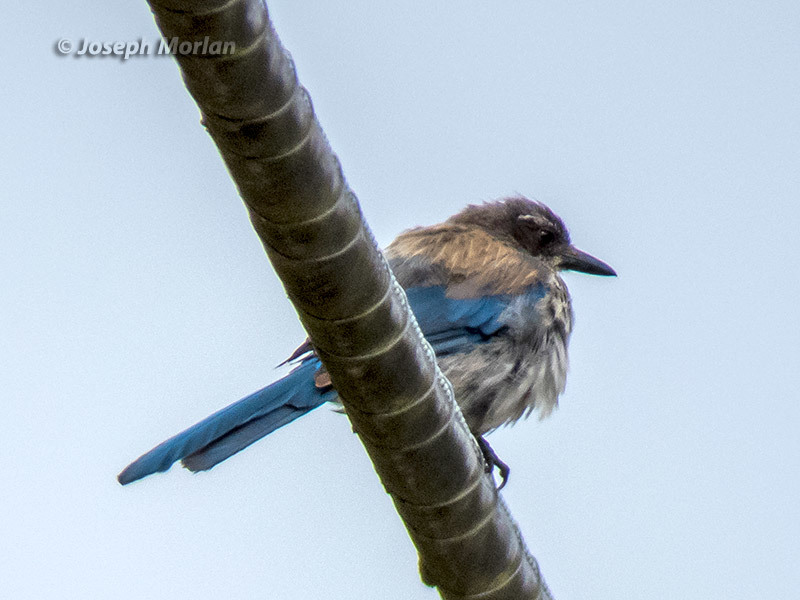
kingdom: Animalia
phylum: Chordata
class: Aves
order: Passeriformes
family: Corvidae
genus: Aphelocoma
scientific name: Aphelocoma californica
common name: California scrub-jay
